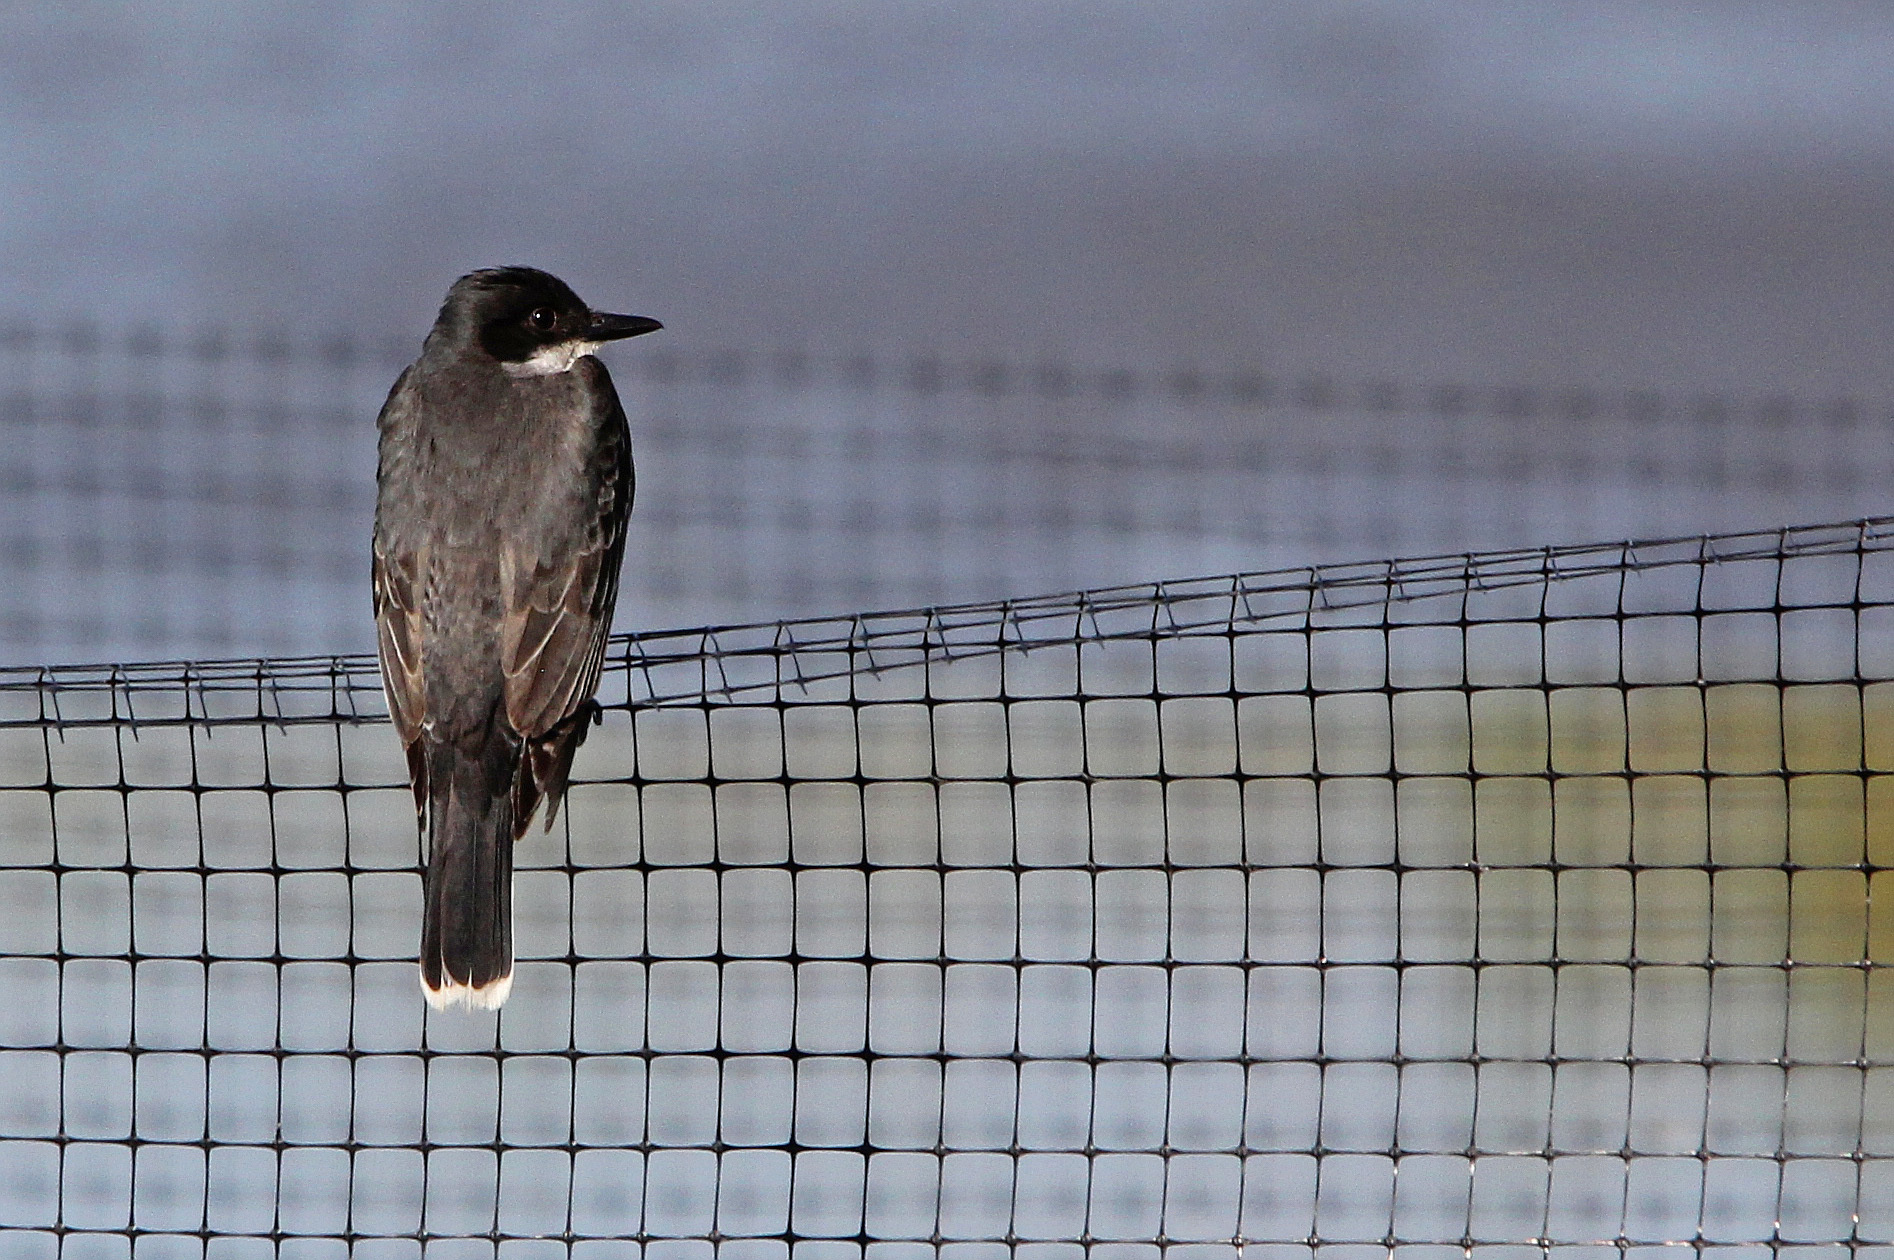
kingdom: Animalia
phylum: Chordata
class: Aves
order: Passeriformes
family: Tyrannidae
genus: Tyrannus
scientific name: Tyrannus tyrannus
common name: Eastern kingbird
